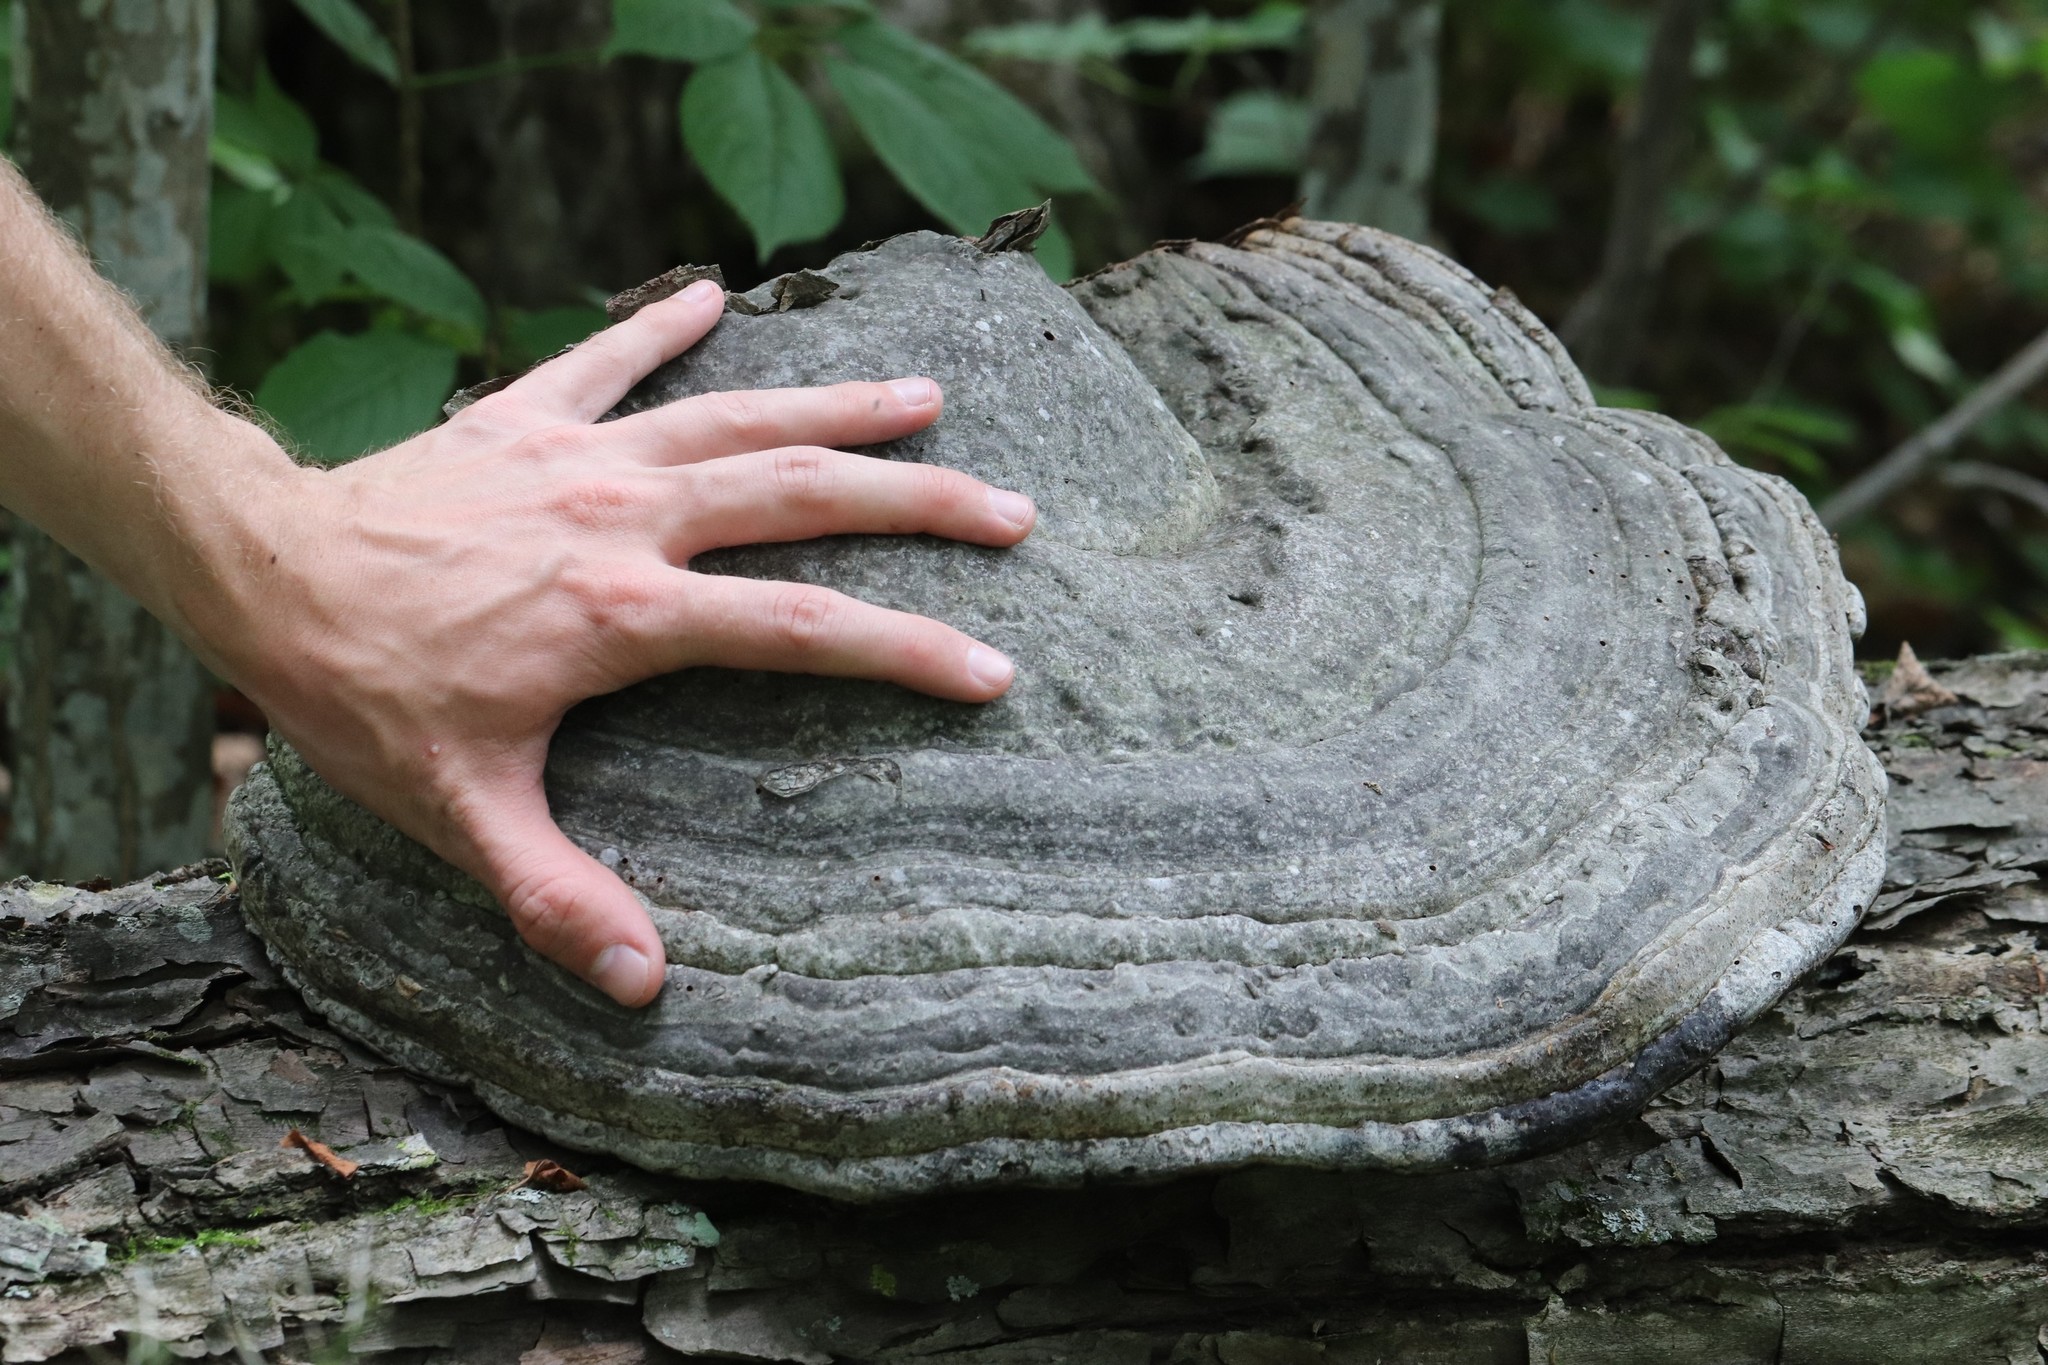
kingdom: Fungi
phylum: Basidiomycota
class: Agaricomycetes
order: Polyporales
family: Polyporaceae
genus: Fomes
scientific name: Fomes fomentarius
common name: Hoof fungus
